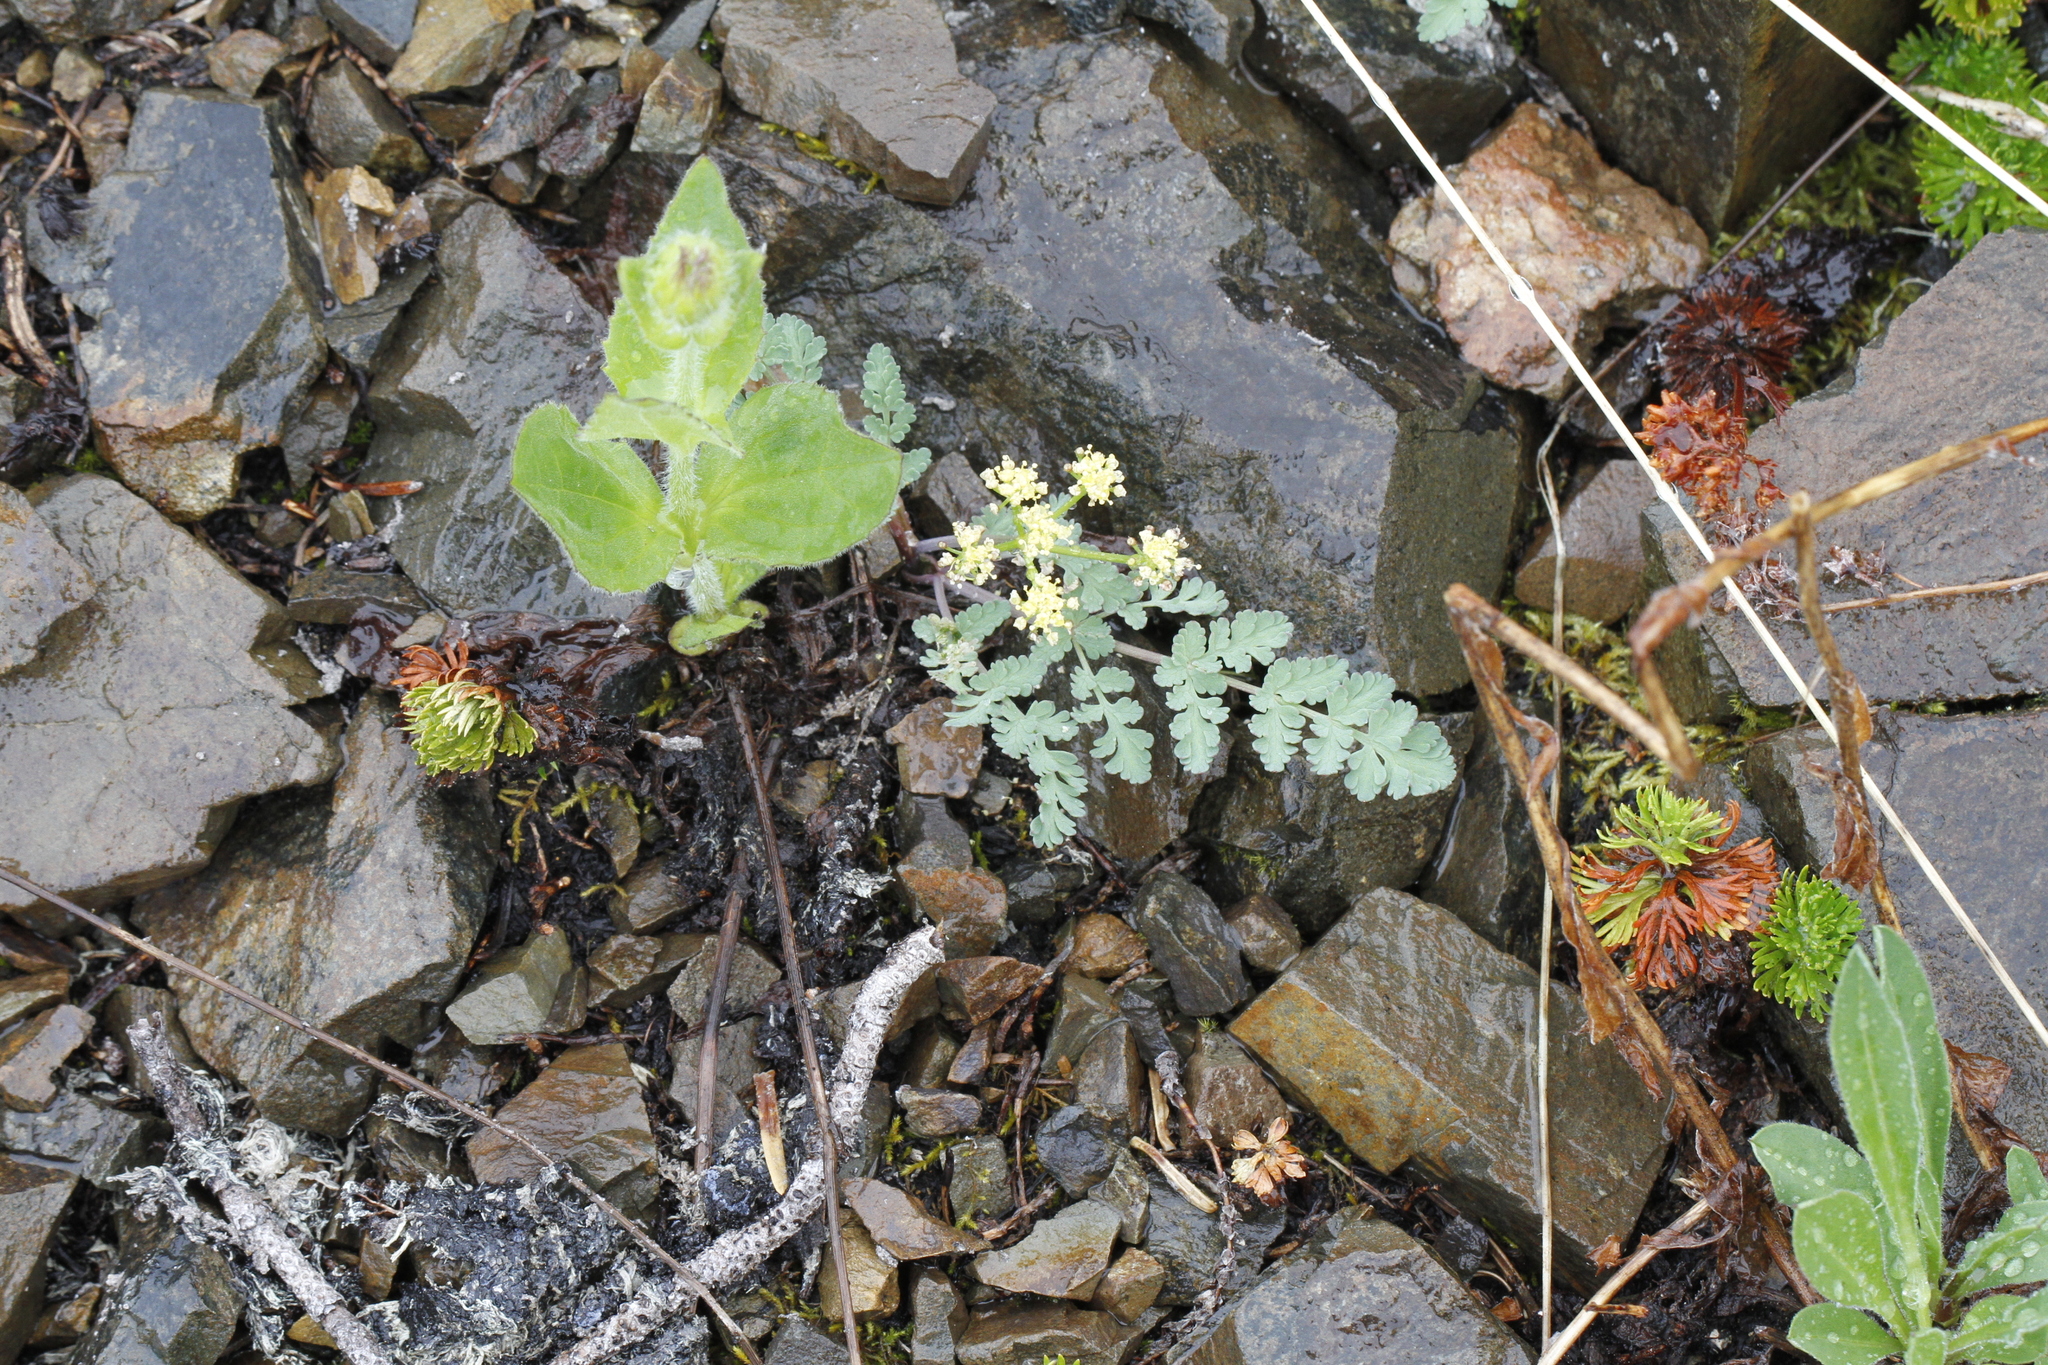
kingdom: Plantae
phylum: Tracheophyta
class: Magnoliopsida
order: Apiales
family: Apiaceae
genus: Lomatium
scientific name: Lomatium martindalei
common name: Cascade desert-parsley
